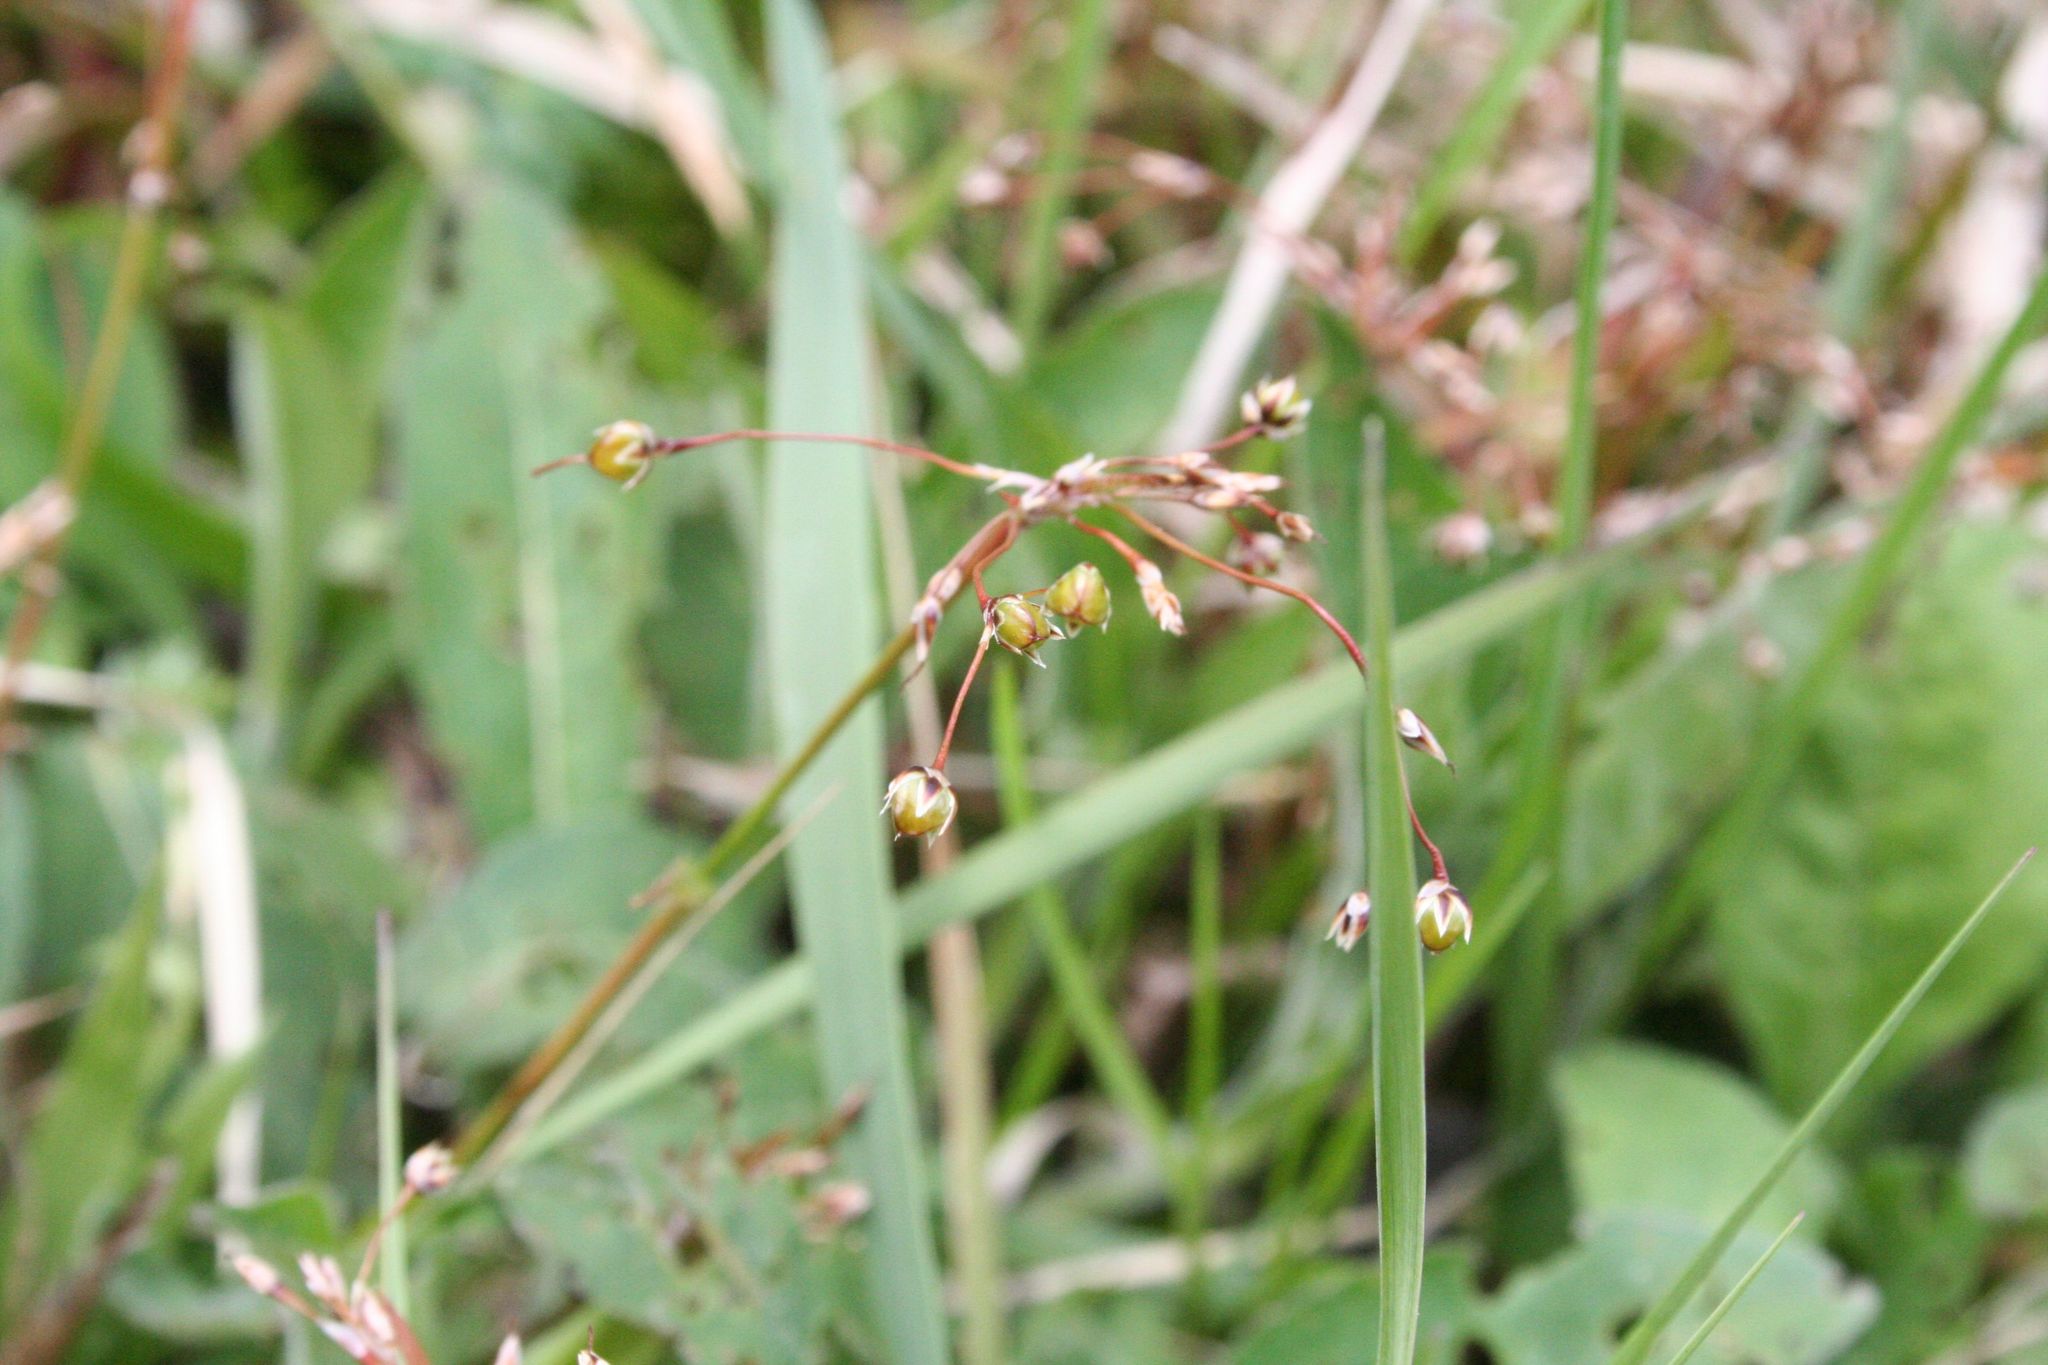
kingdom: Plantae
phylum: Tracheophyta
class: Liliopsida
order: Poales
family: Juncaceae
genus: Luzula
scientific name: Luzula pilosa
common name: Hairy wood-rush
